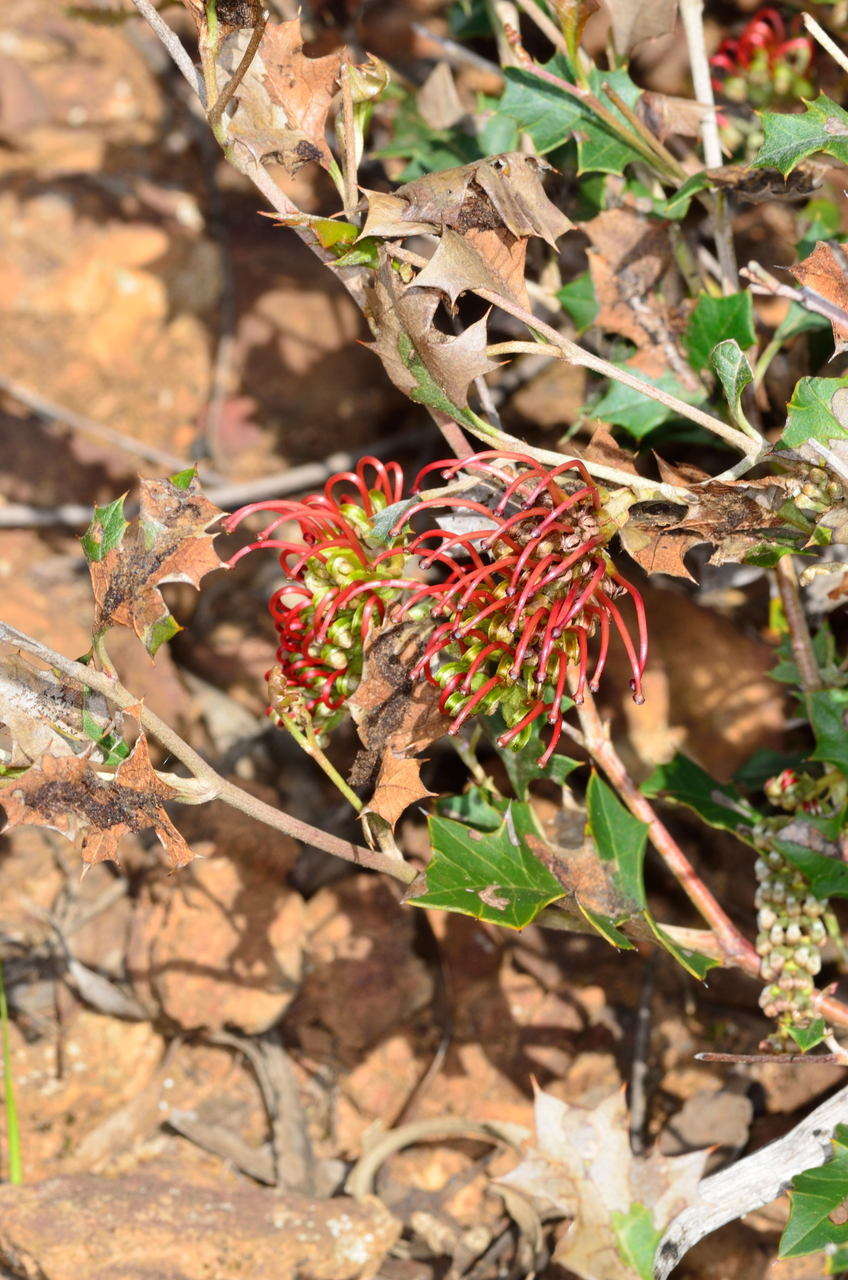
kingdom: Plantae
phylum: Tracheophyta
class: Magnoliopsida
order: Proteales
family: Proteaceae
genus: Grevillea
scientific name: Grevillea steiglitziana
